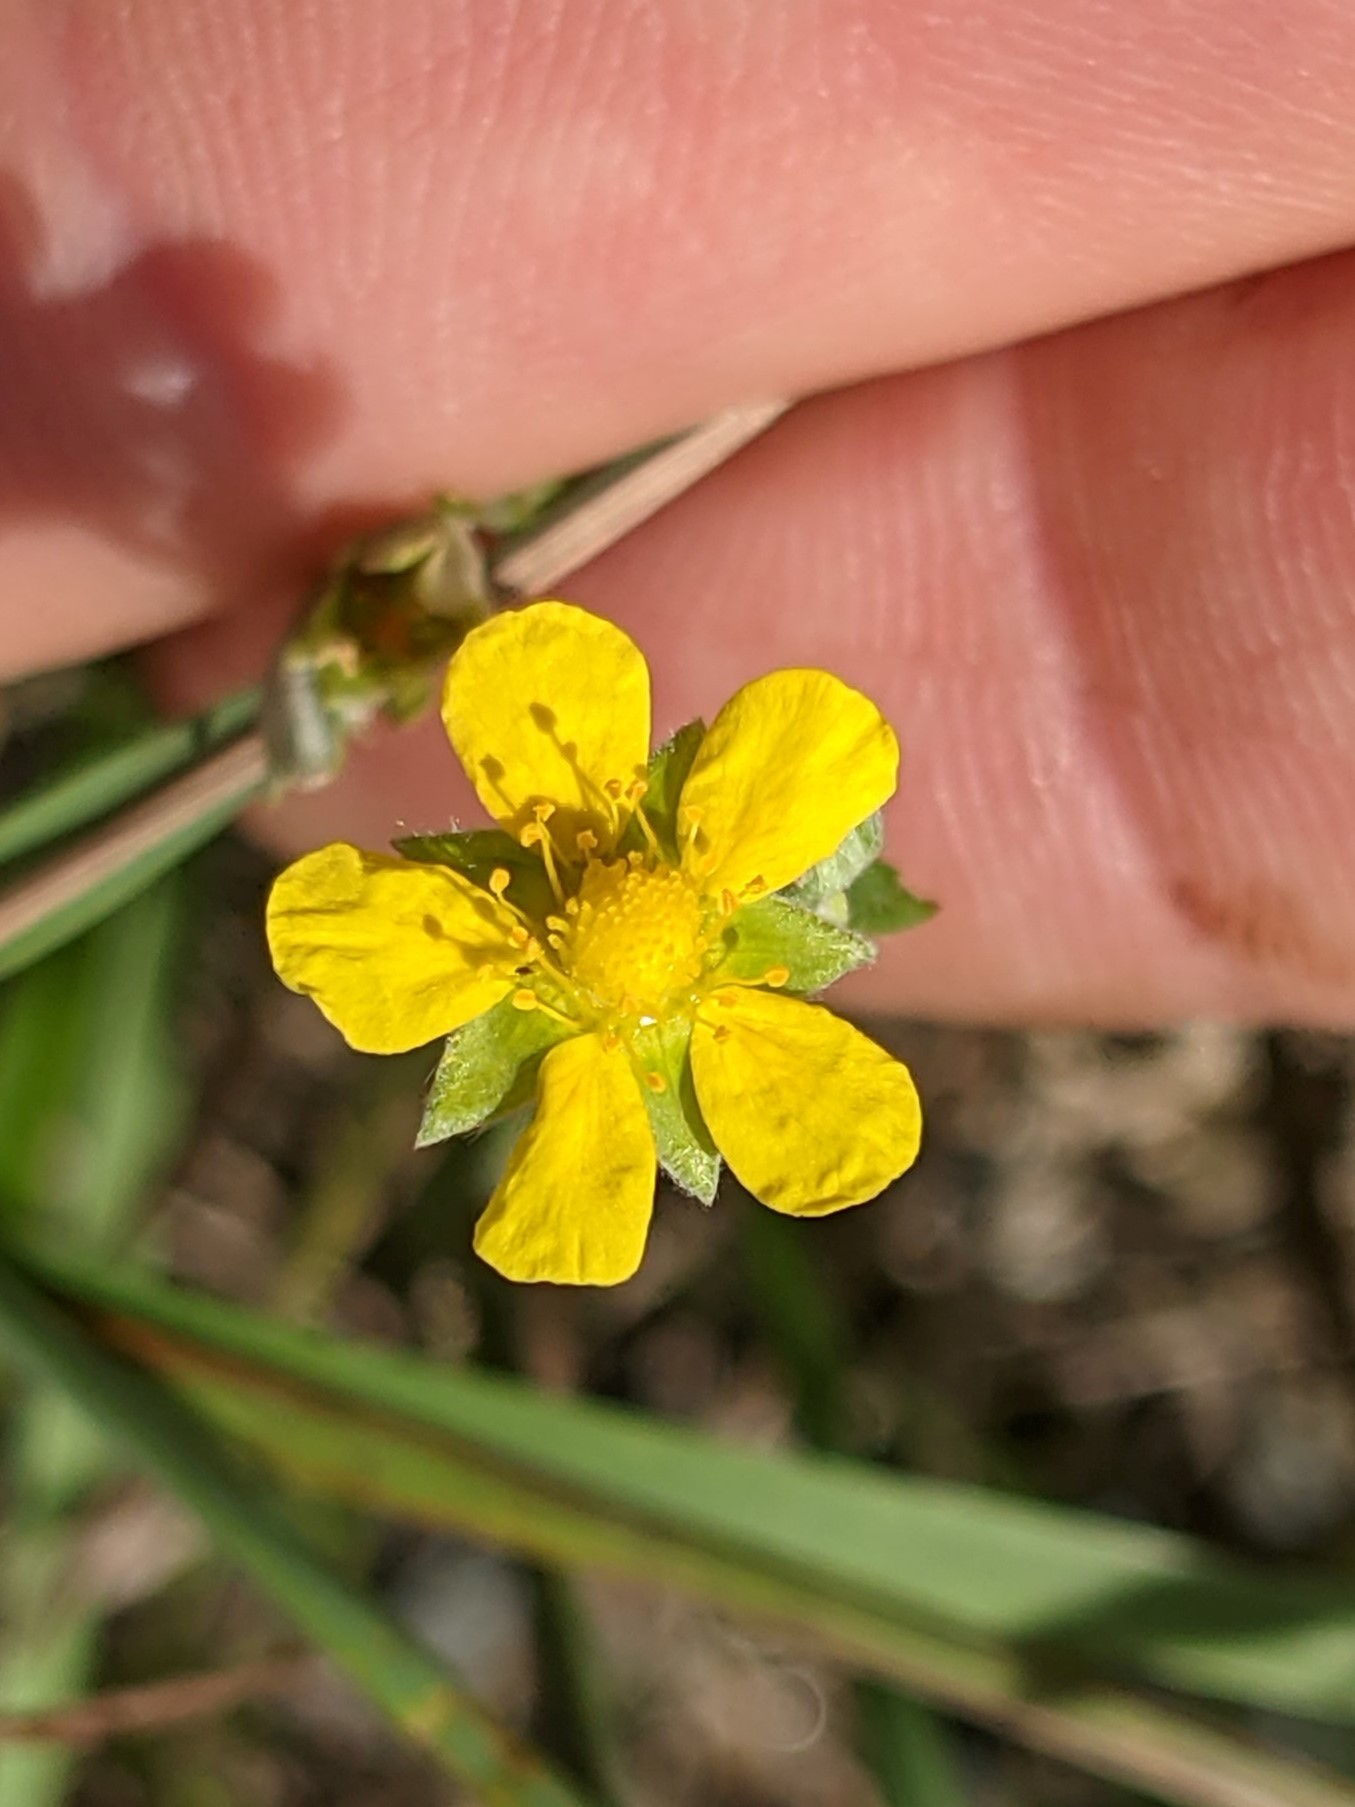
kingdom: Plantae
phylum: Tracheophyta
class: Magnoliopsida
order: Rosales
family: Rosaceae
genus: Potentilla
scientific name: Potentilla argentea
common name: Hoary cinquefoil
